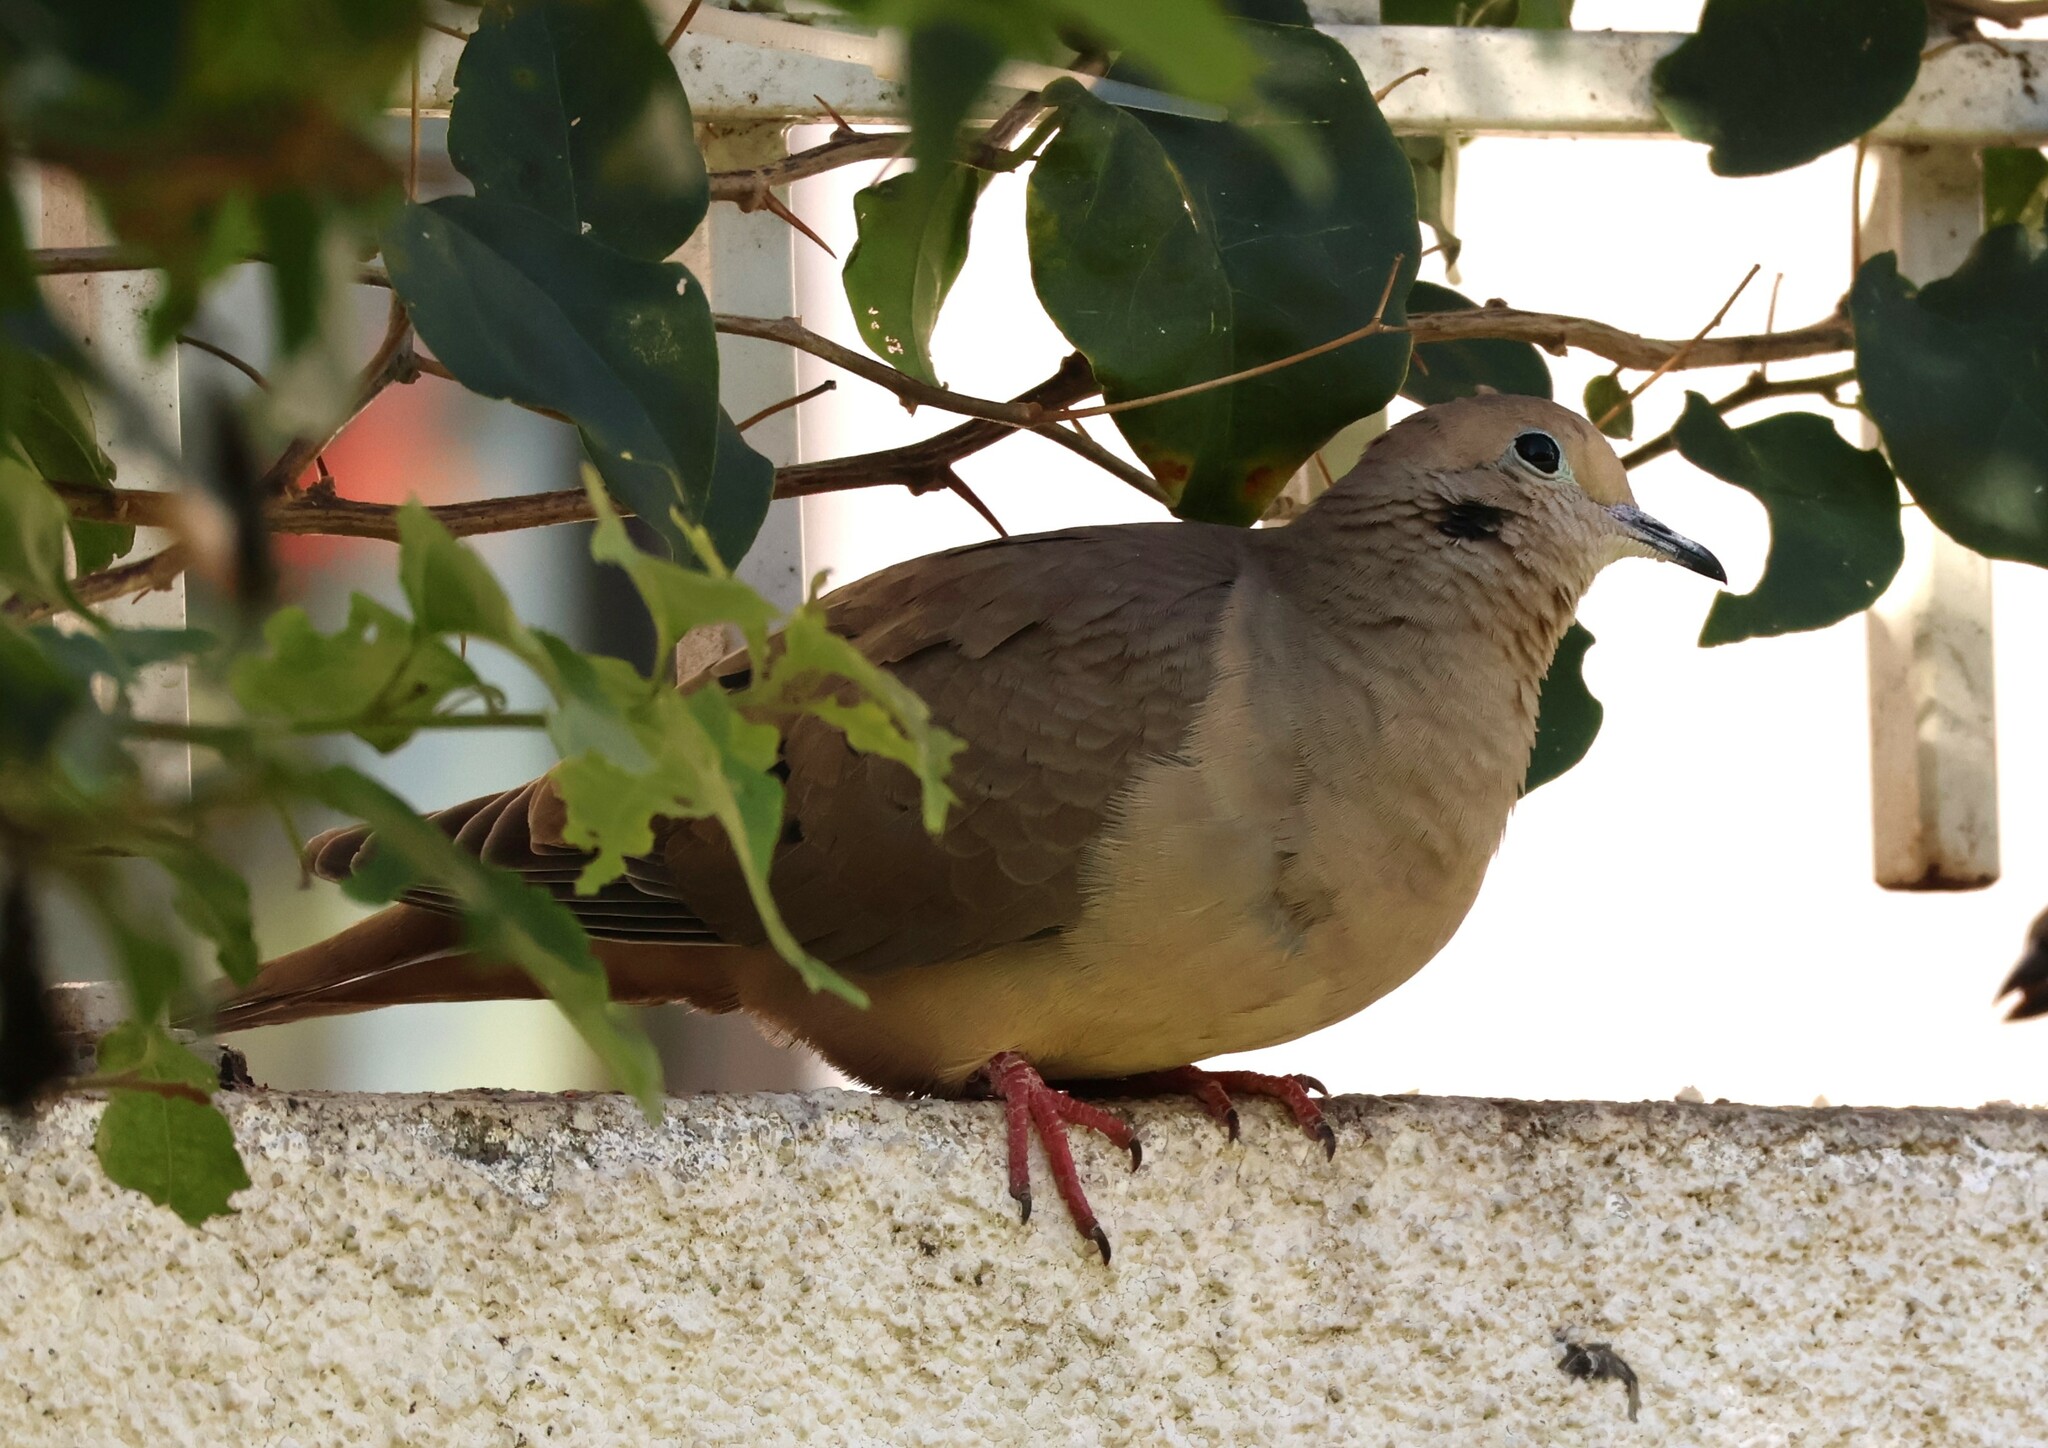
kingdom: Animalia
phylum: Chordata
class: Aves
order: Columbiformes
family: Columbidae
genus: Zenaida
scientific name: Zenaida macroura
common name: Mourning dove
